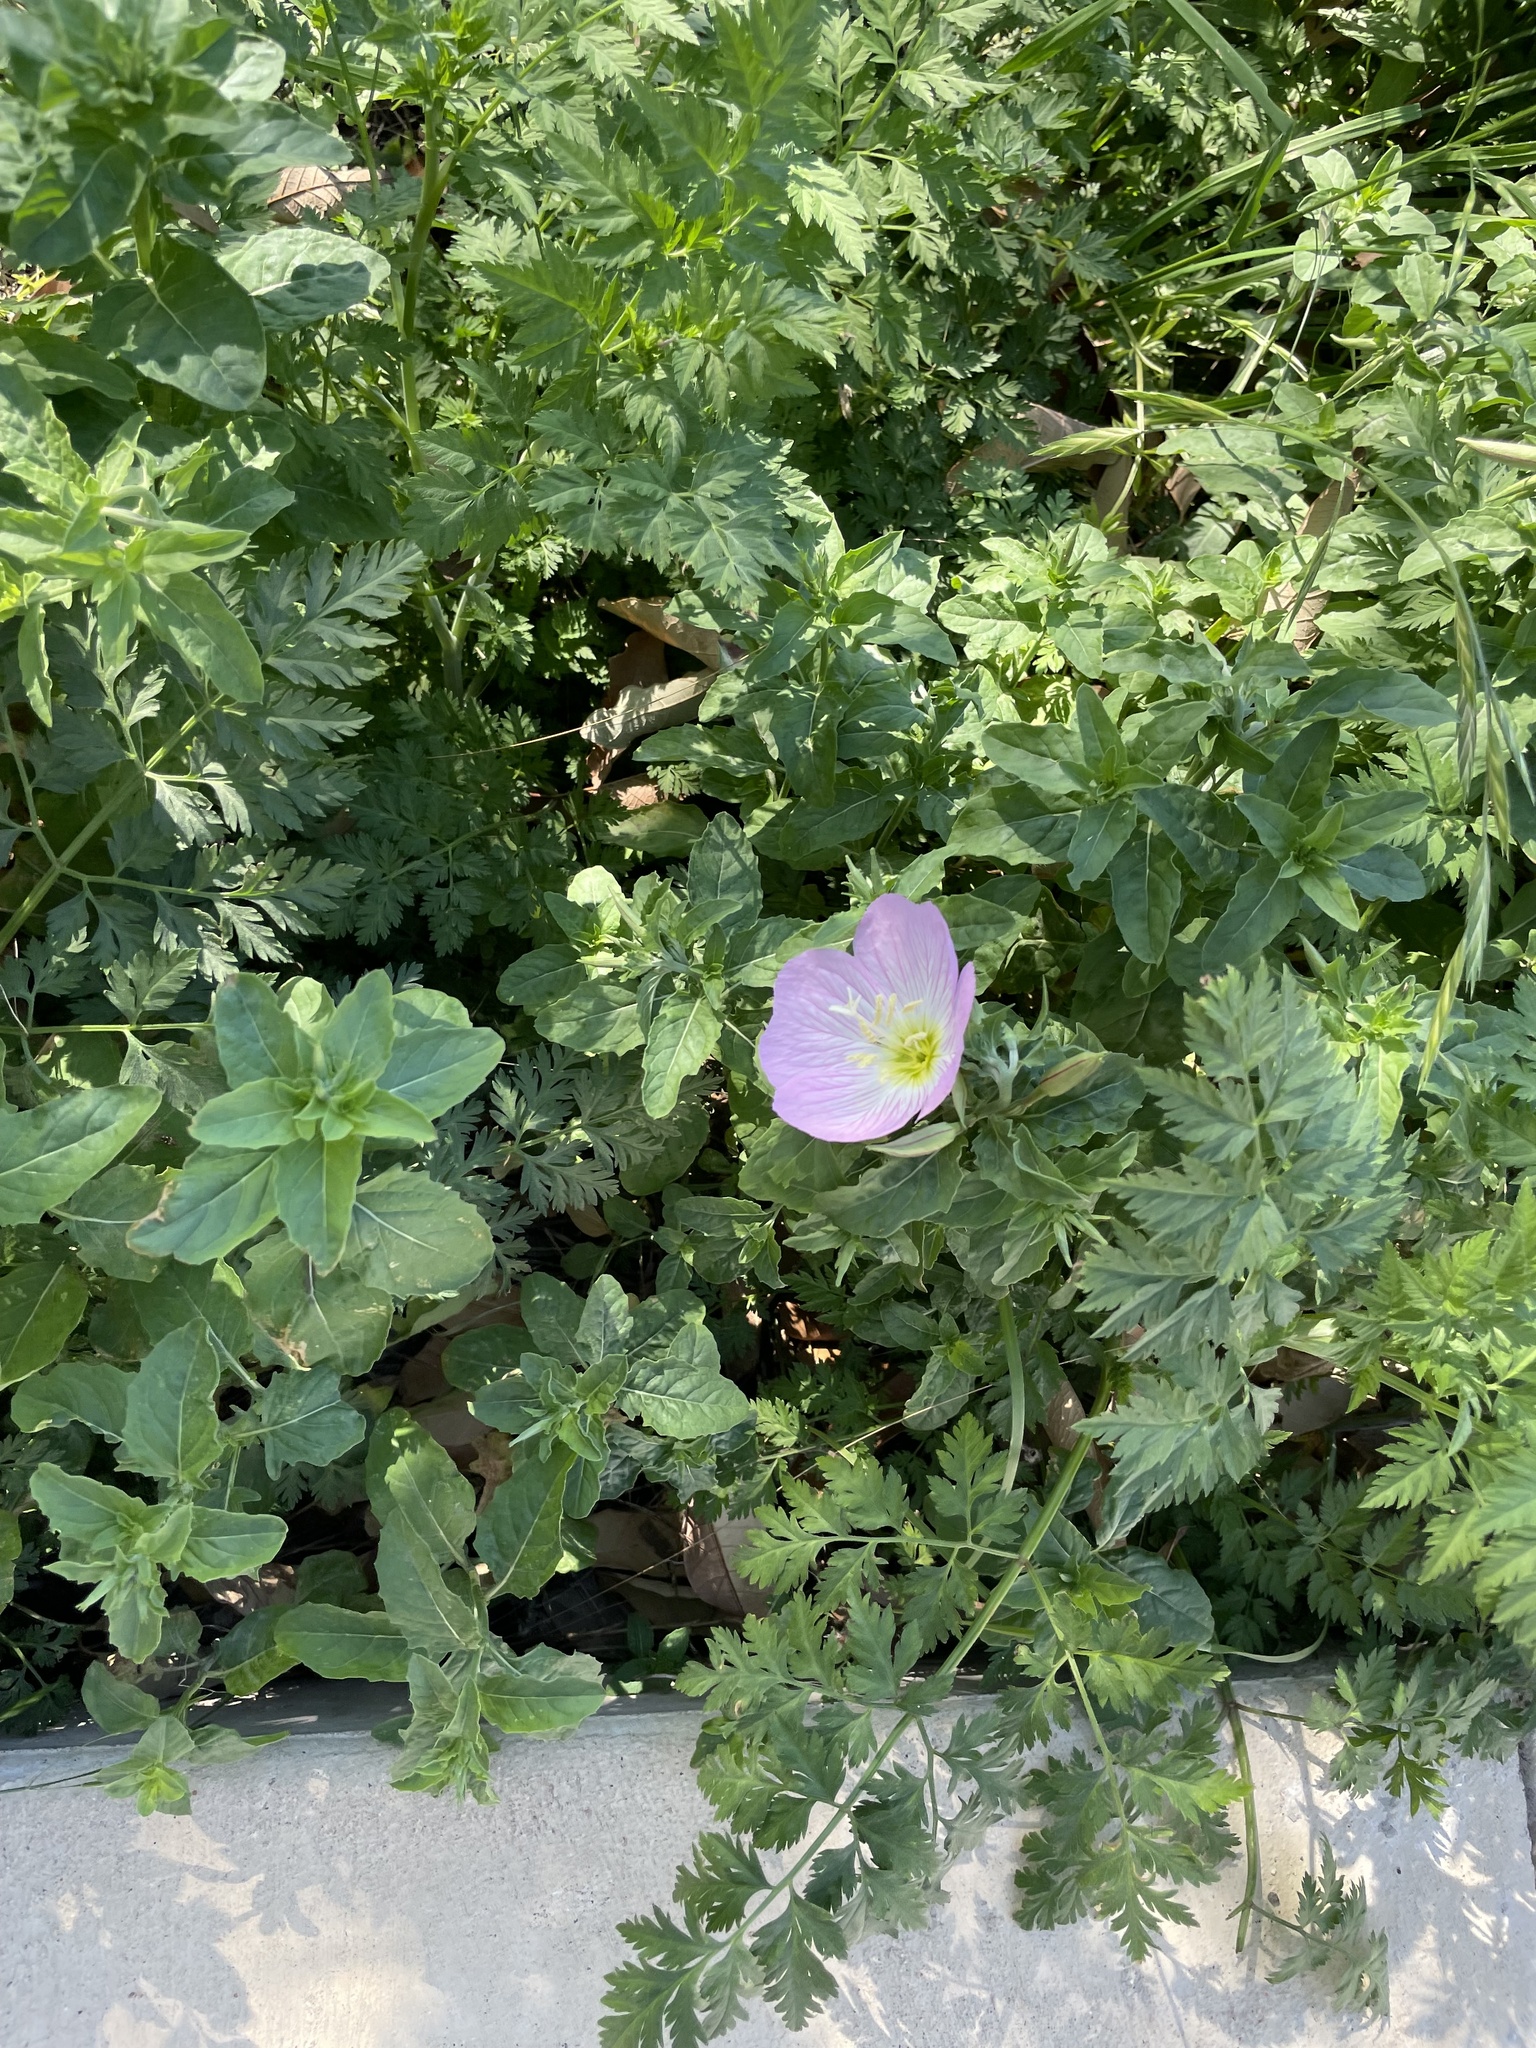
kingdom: Plantae
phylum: Tracheophyta
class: Magnoliopsida
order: Myrtales
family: Onagraceae
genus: Oenothera
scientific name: Oenothera speciosa
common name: White evening-primrose
